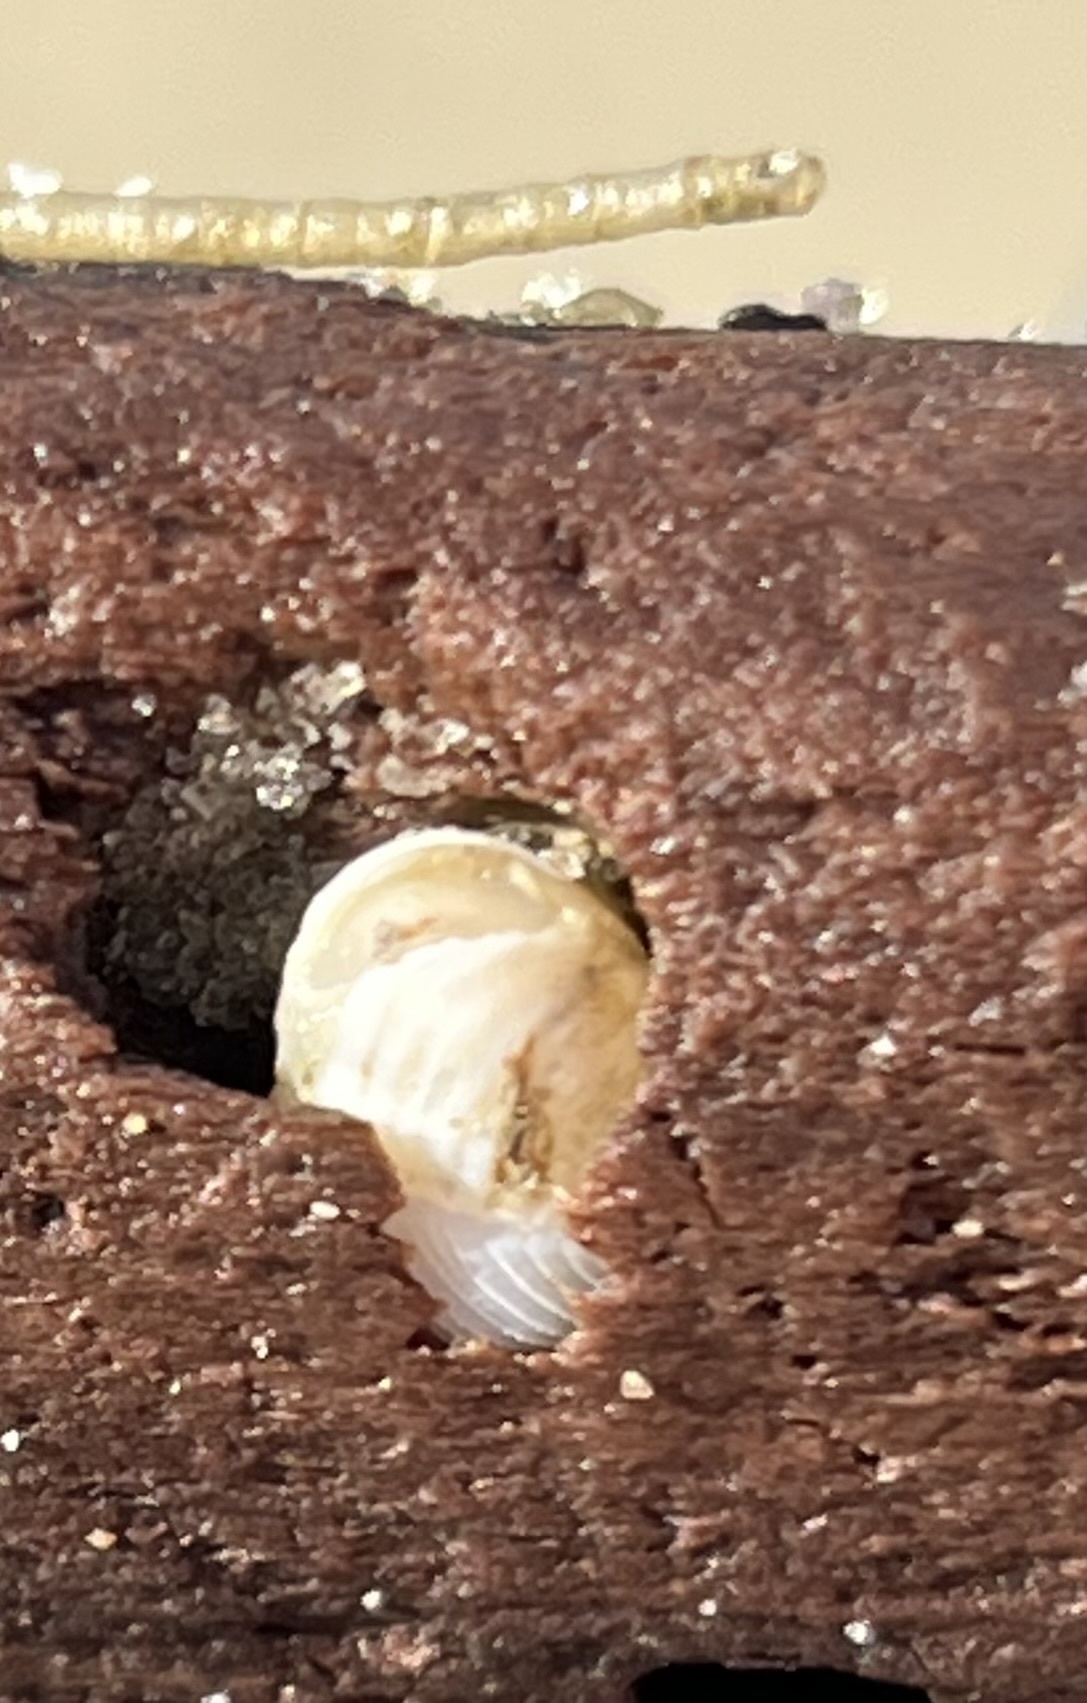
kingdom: Animalia
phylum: Mollusca
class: Bivalvia
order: Myida
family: Pholadidae
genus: Martesia
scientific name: Martesia striata
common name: Striate piddock
